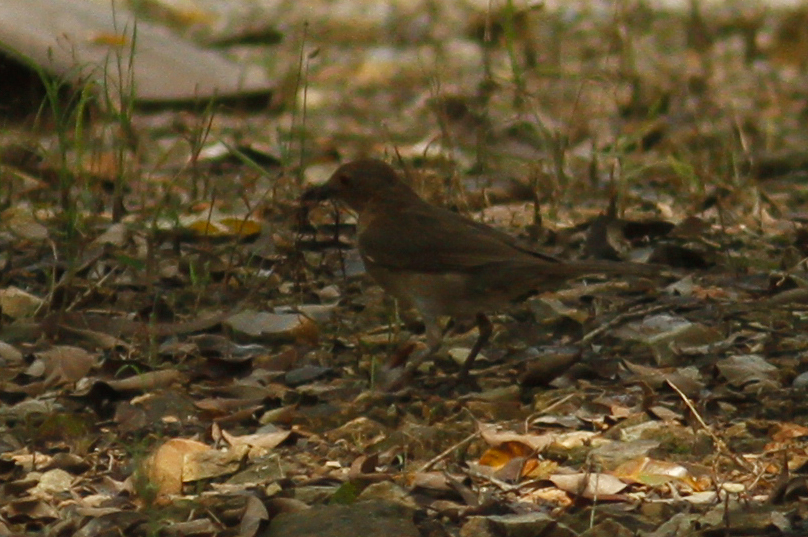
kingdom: Animalia
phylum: Chordata
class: Aves
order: Passeriformes
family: Turdidae
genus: Turdus
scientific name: Turdus maculirostris
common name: Ecuadorian thrush
